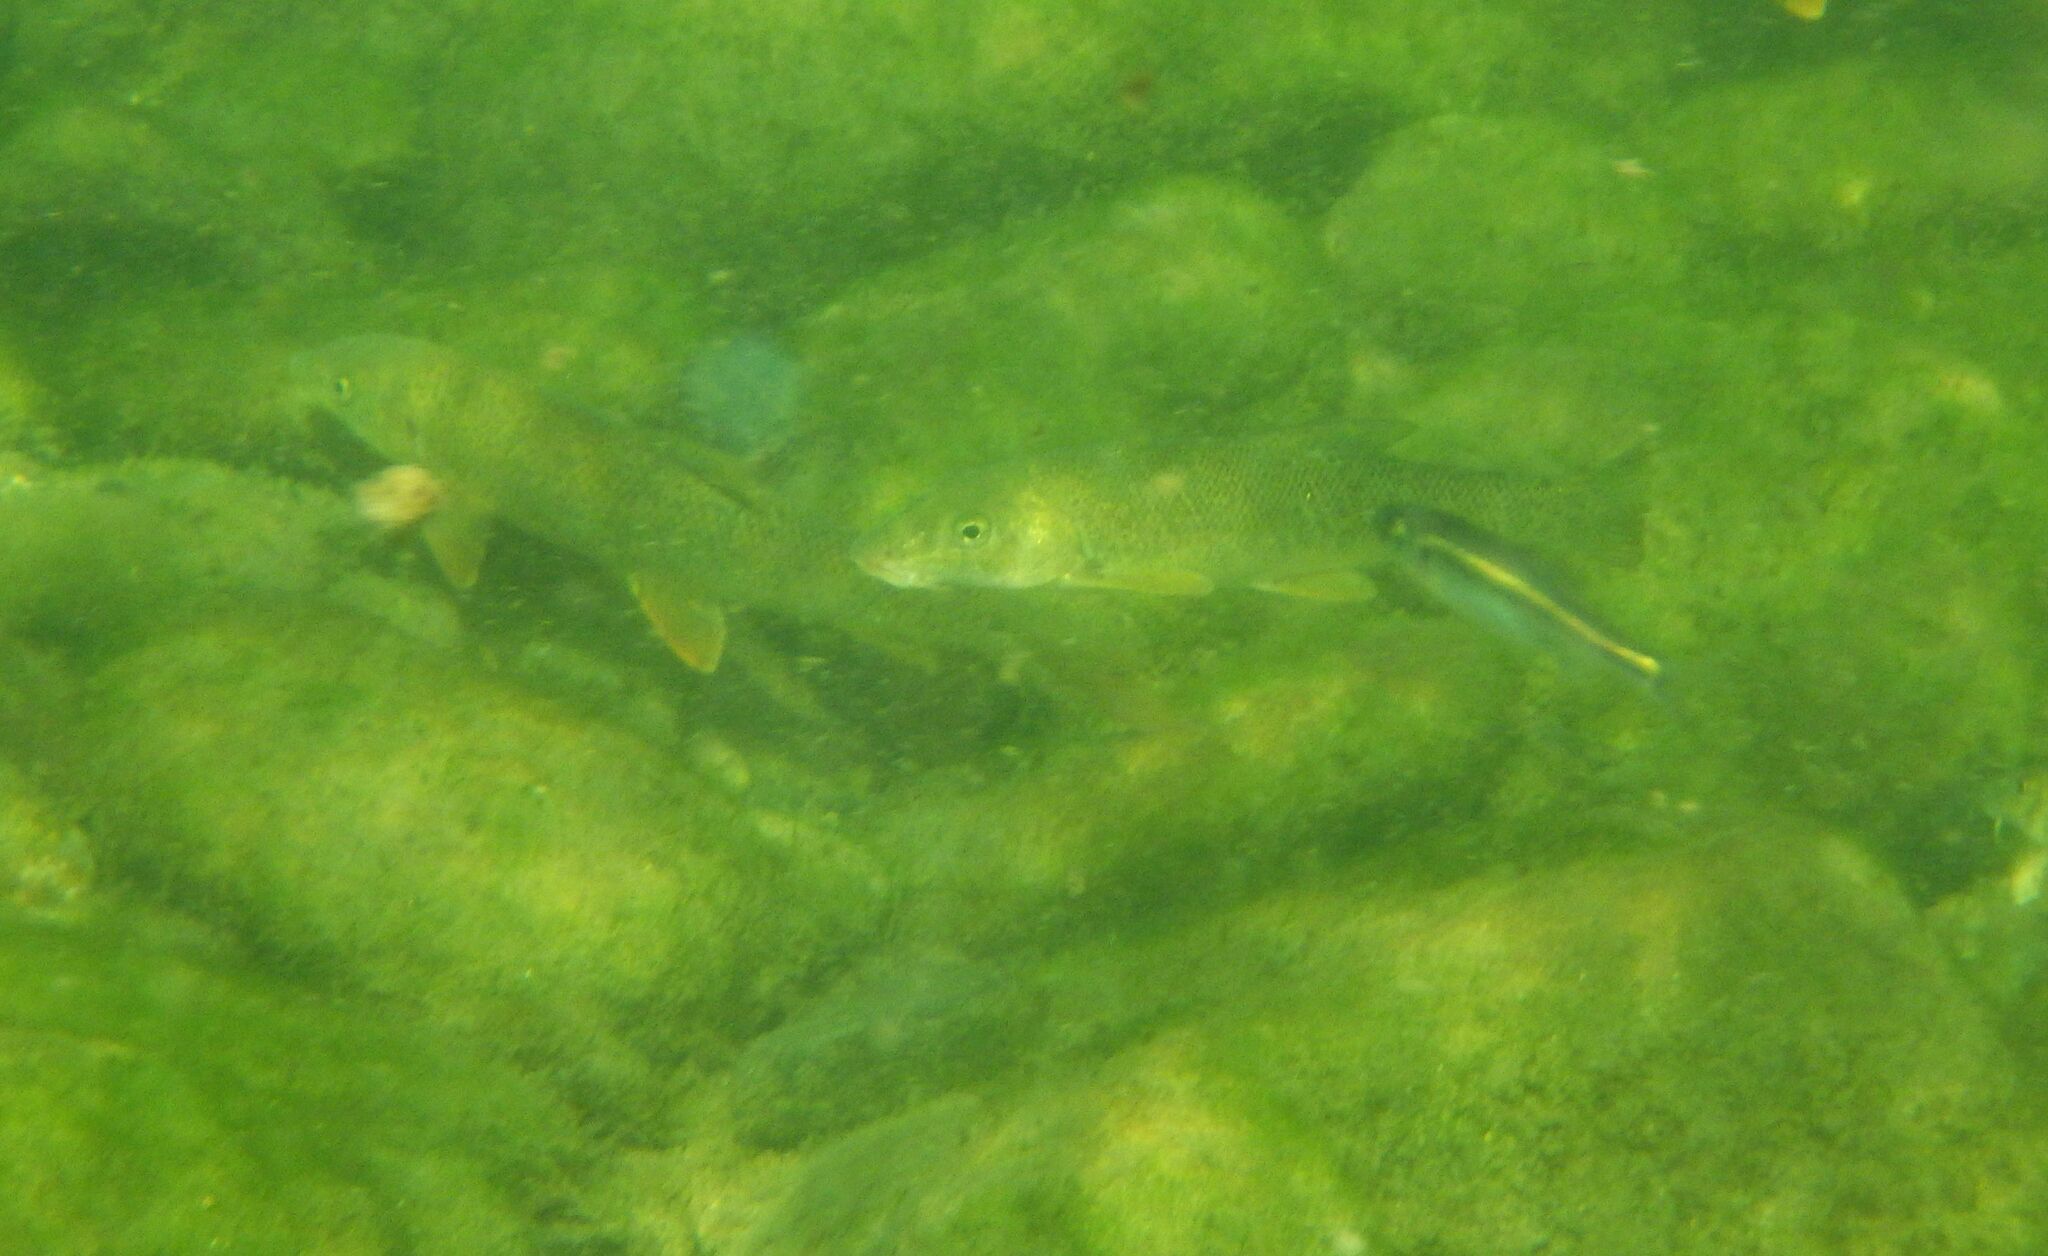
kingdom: Animalia
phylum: Chordata
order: Cypriniformes
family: Cyprinidae
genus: Barbus
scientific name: Barbus barbus
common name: Barbel
